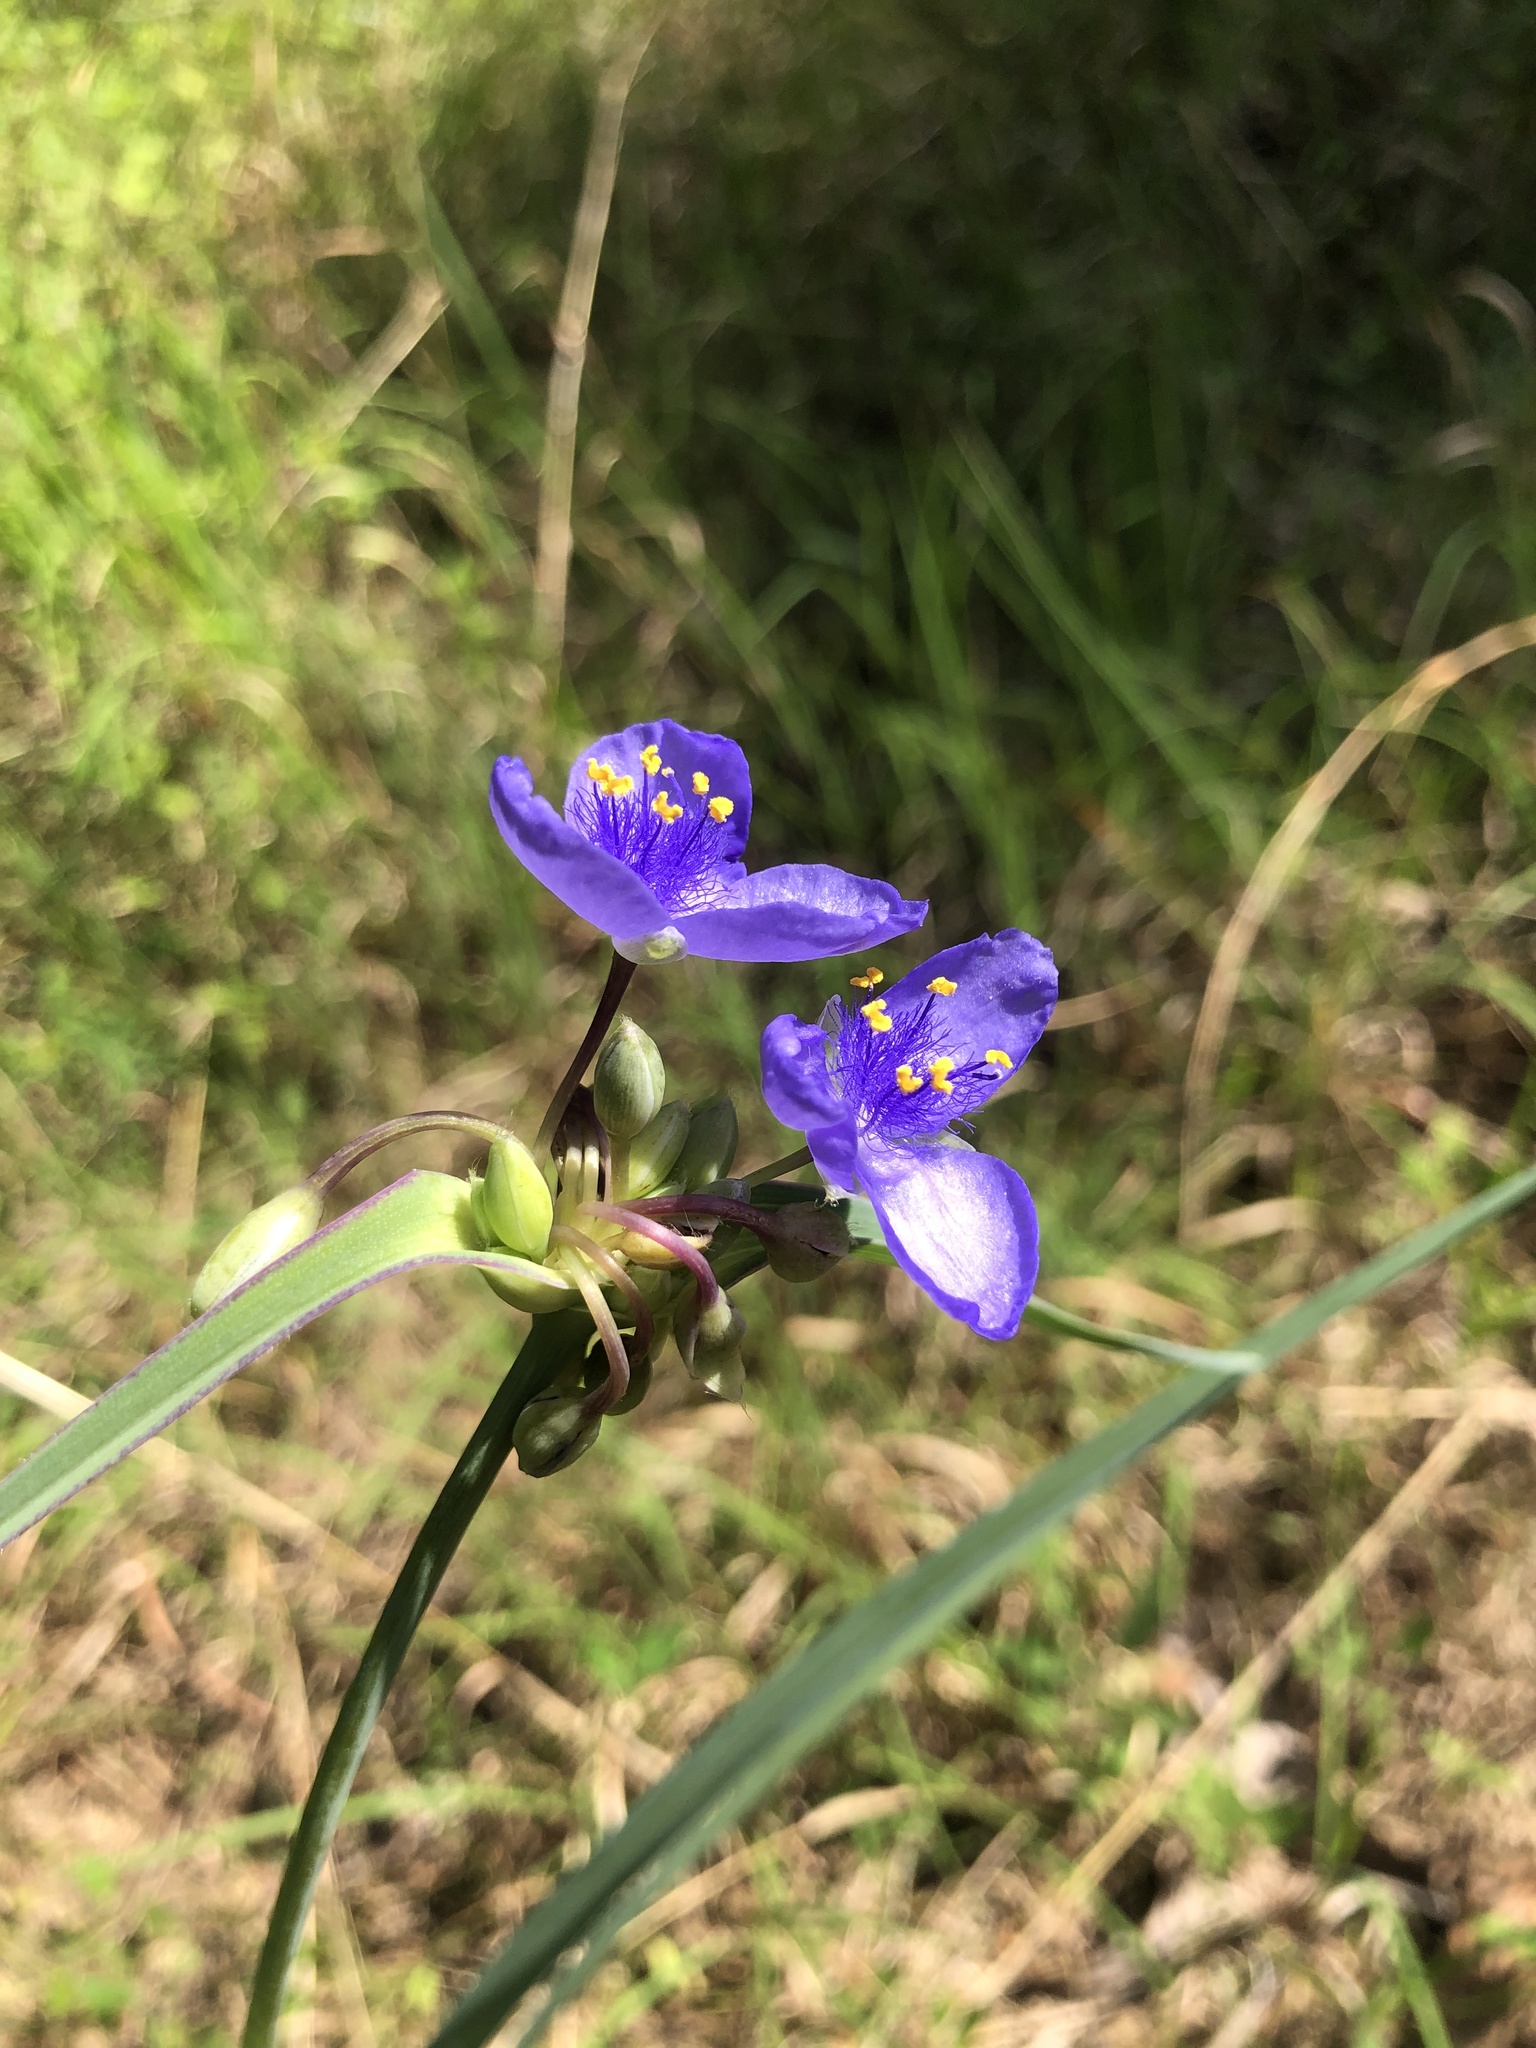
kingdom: Plantae
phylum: Tracheophyta
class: Liliopsida
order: Commelinales
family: Commelinaceae
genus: Tradescantia
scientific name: Tradescantia ohiensis
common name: Ohio spiderwort
